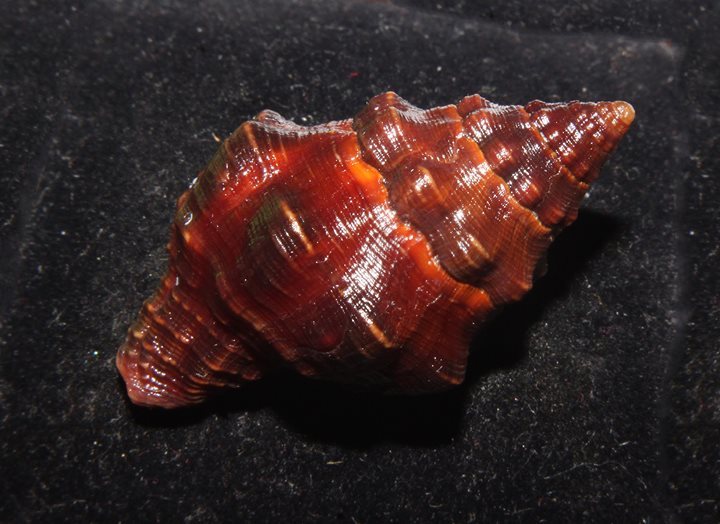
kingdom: Animalia
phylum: Mollusca
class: Gastropoda
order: Neogastropoda
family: Fasciolariidae
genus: Leucozonia
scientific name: Leucozonia nassa
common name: Chestnut latirus
